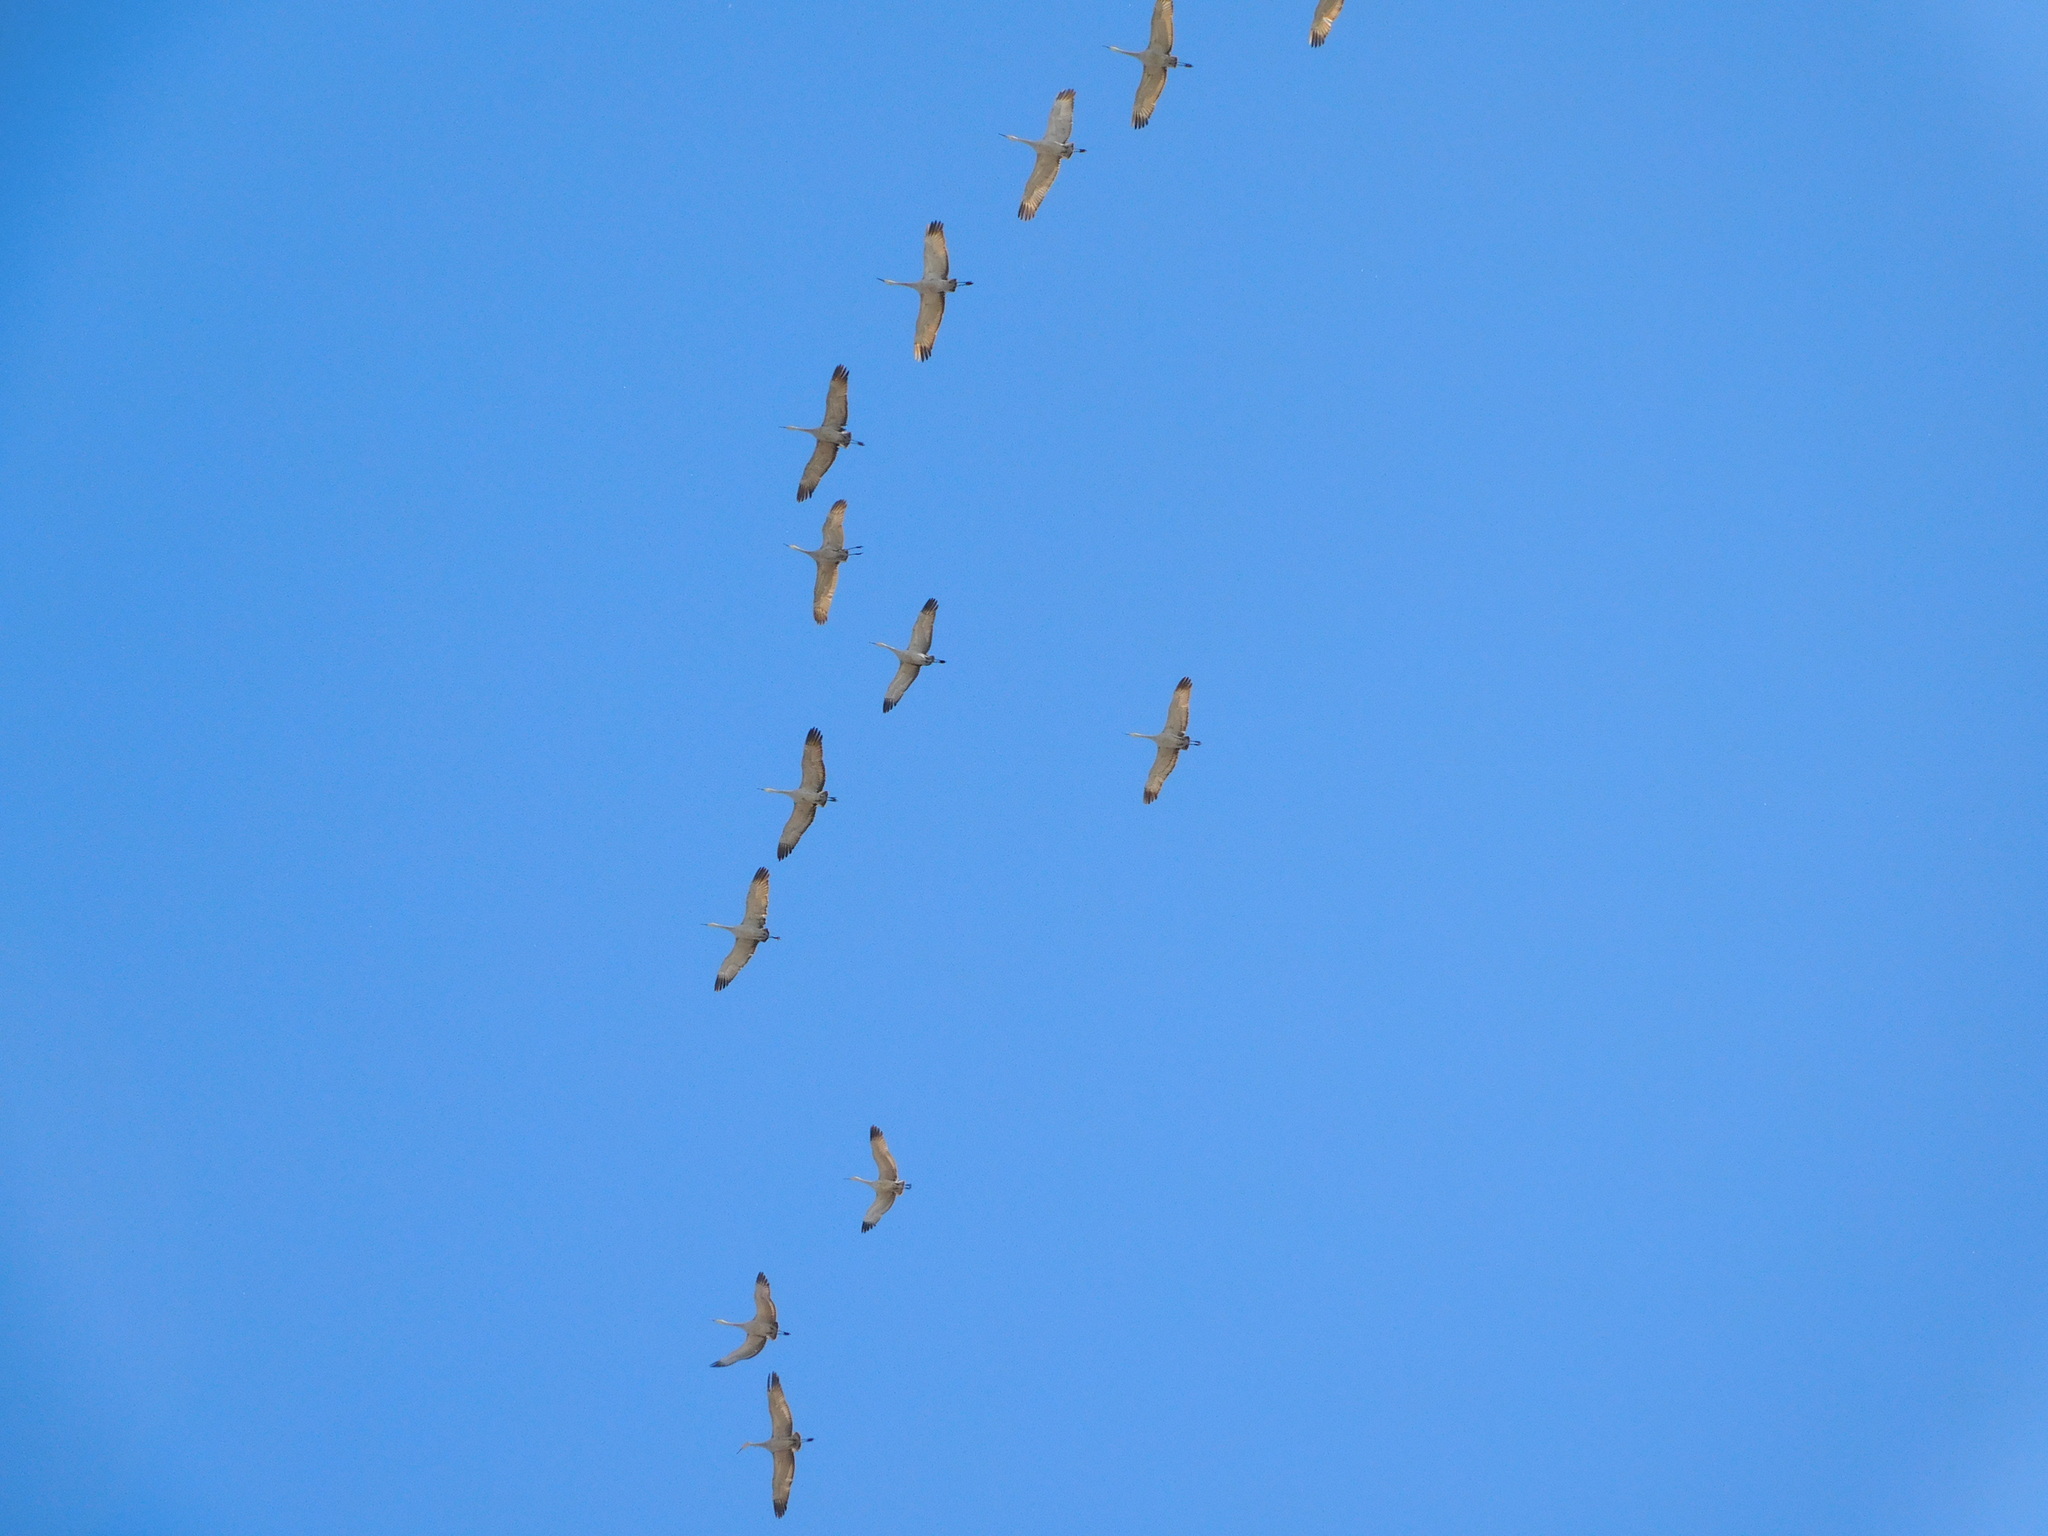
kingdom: Animalia
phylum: Chordata
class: Aves
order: Gruiformes
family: Gruidae
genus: Grus
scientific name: Grus canadensis
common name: Sandhill crane
